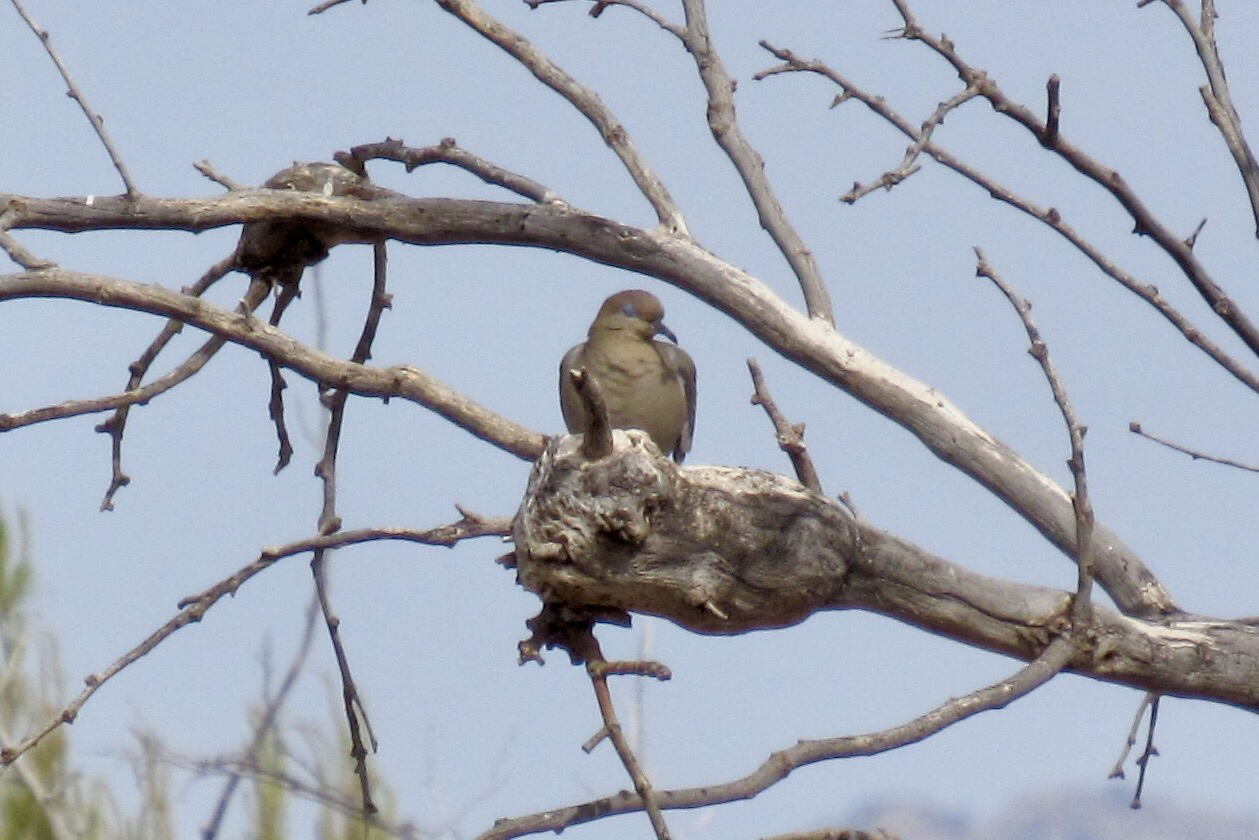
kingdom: Animalia
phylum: Chordata
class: Aves
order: Columbiformes
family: Columbidae
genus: Zenaida
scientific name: Zenaida asiatica
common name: White-winged dove
